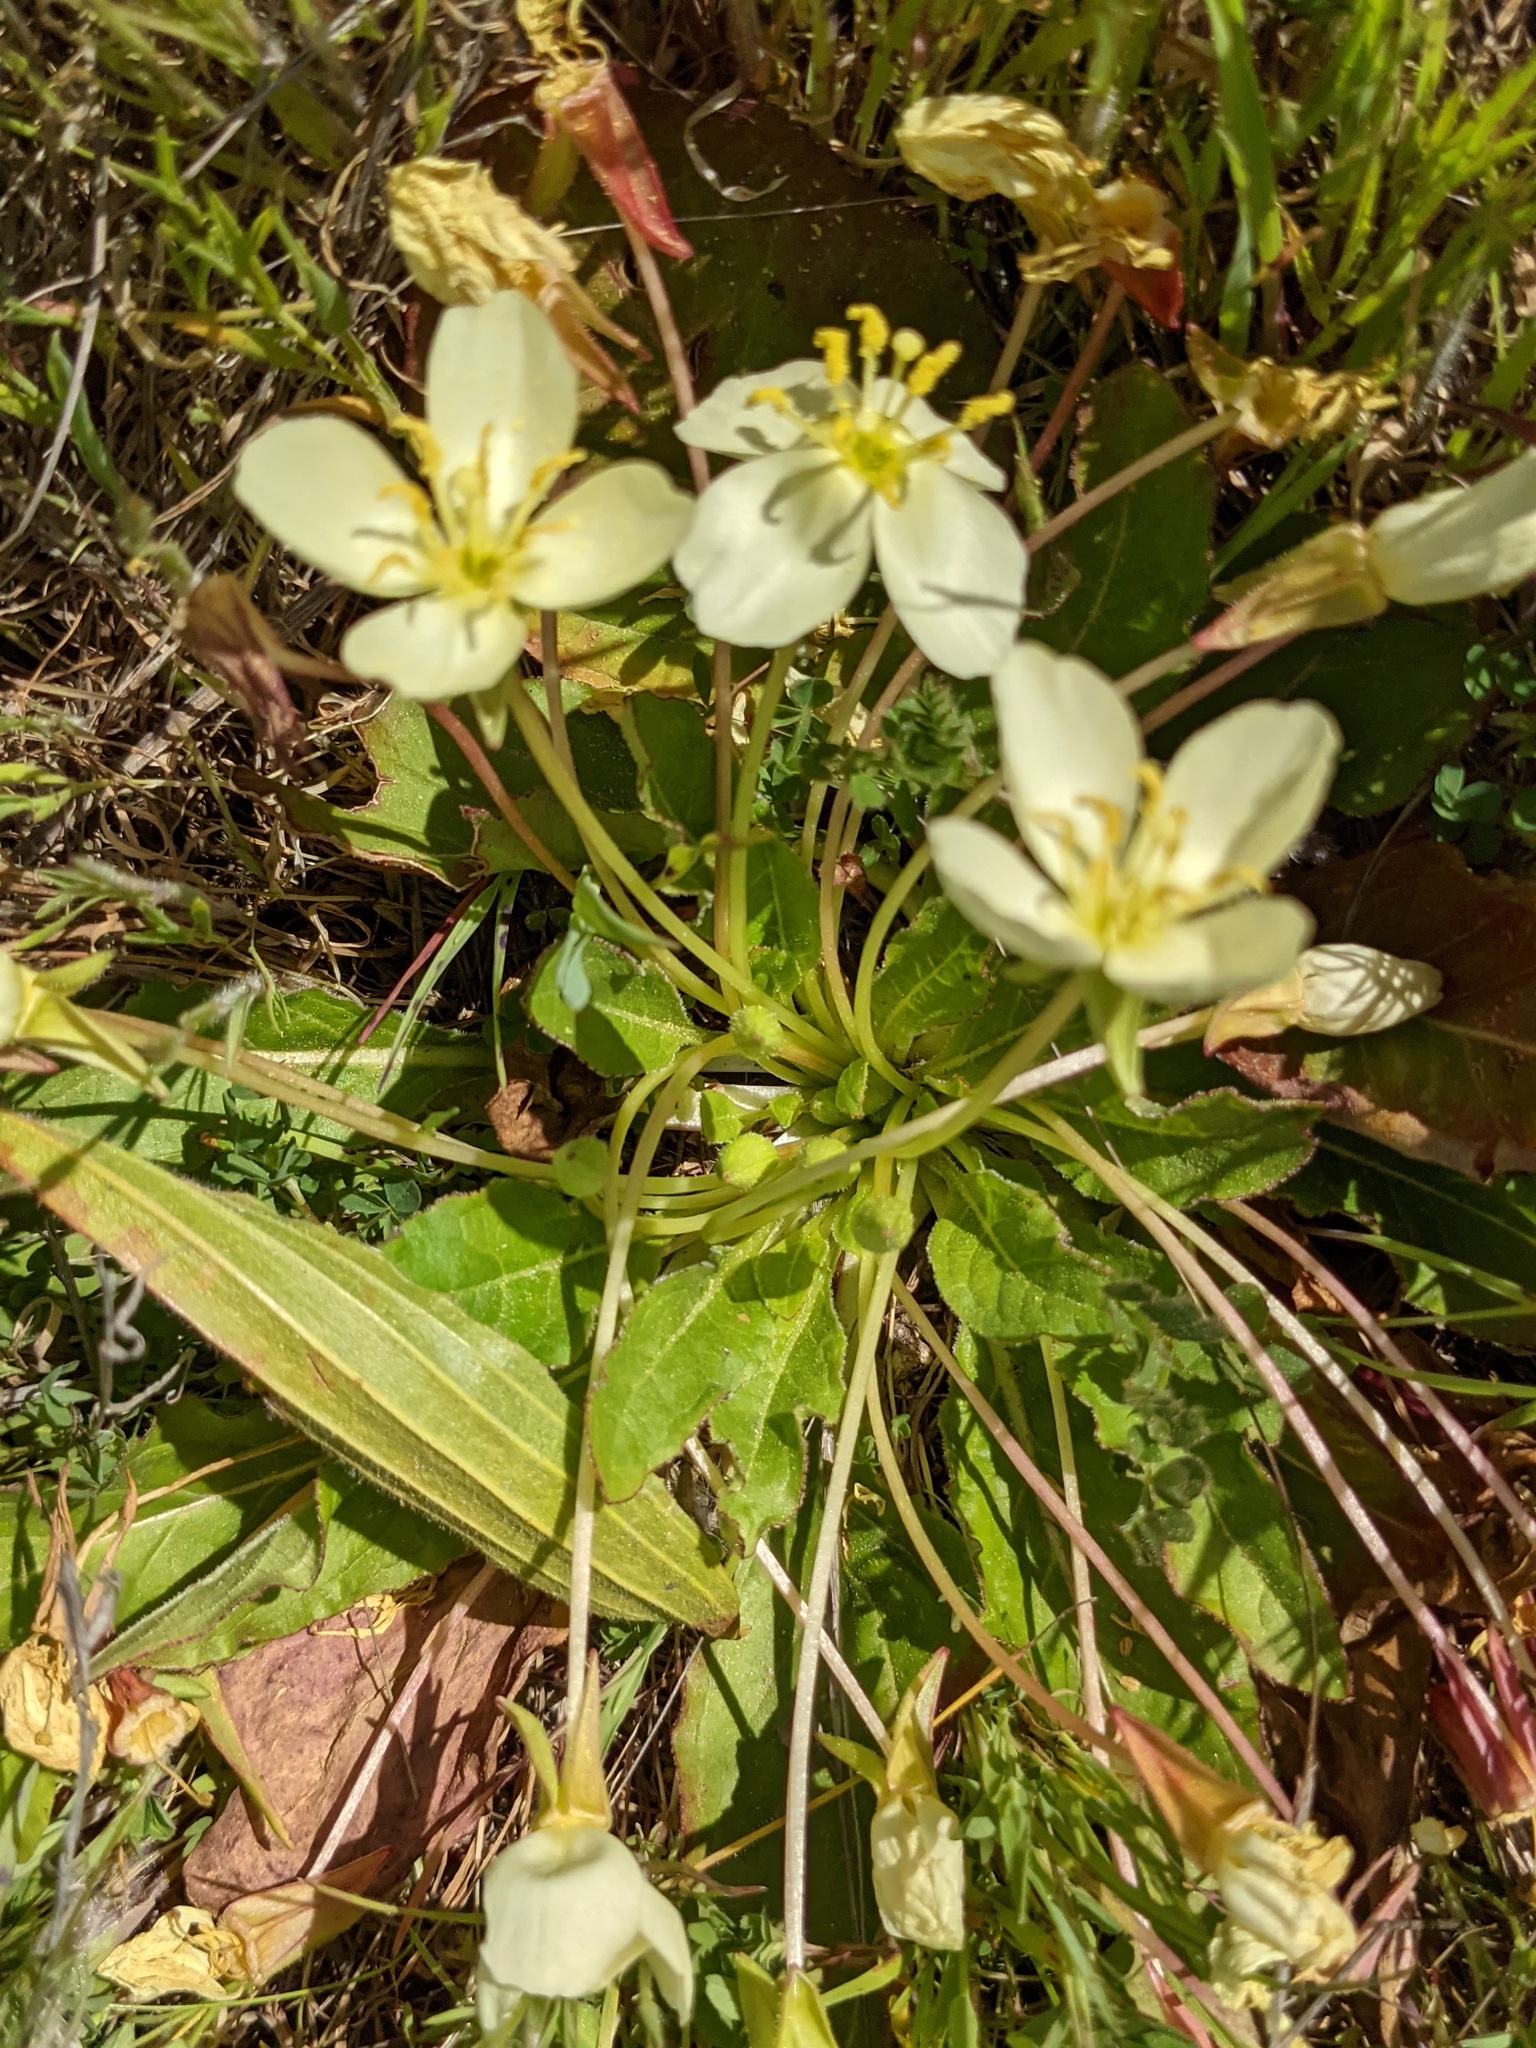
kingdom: Plantae
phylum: Tracheophyta
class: Magnoliopsida
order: Myrtales
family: Onagraceae
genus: Taraxia
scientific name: Taraxia ovata
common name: Goldeneggs
